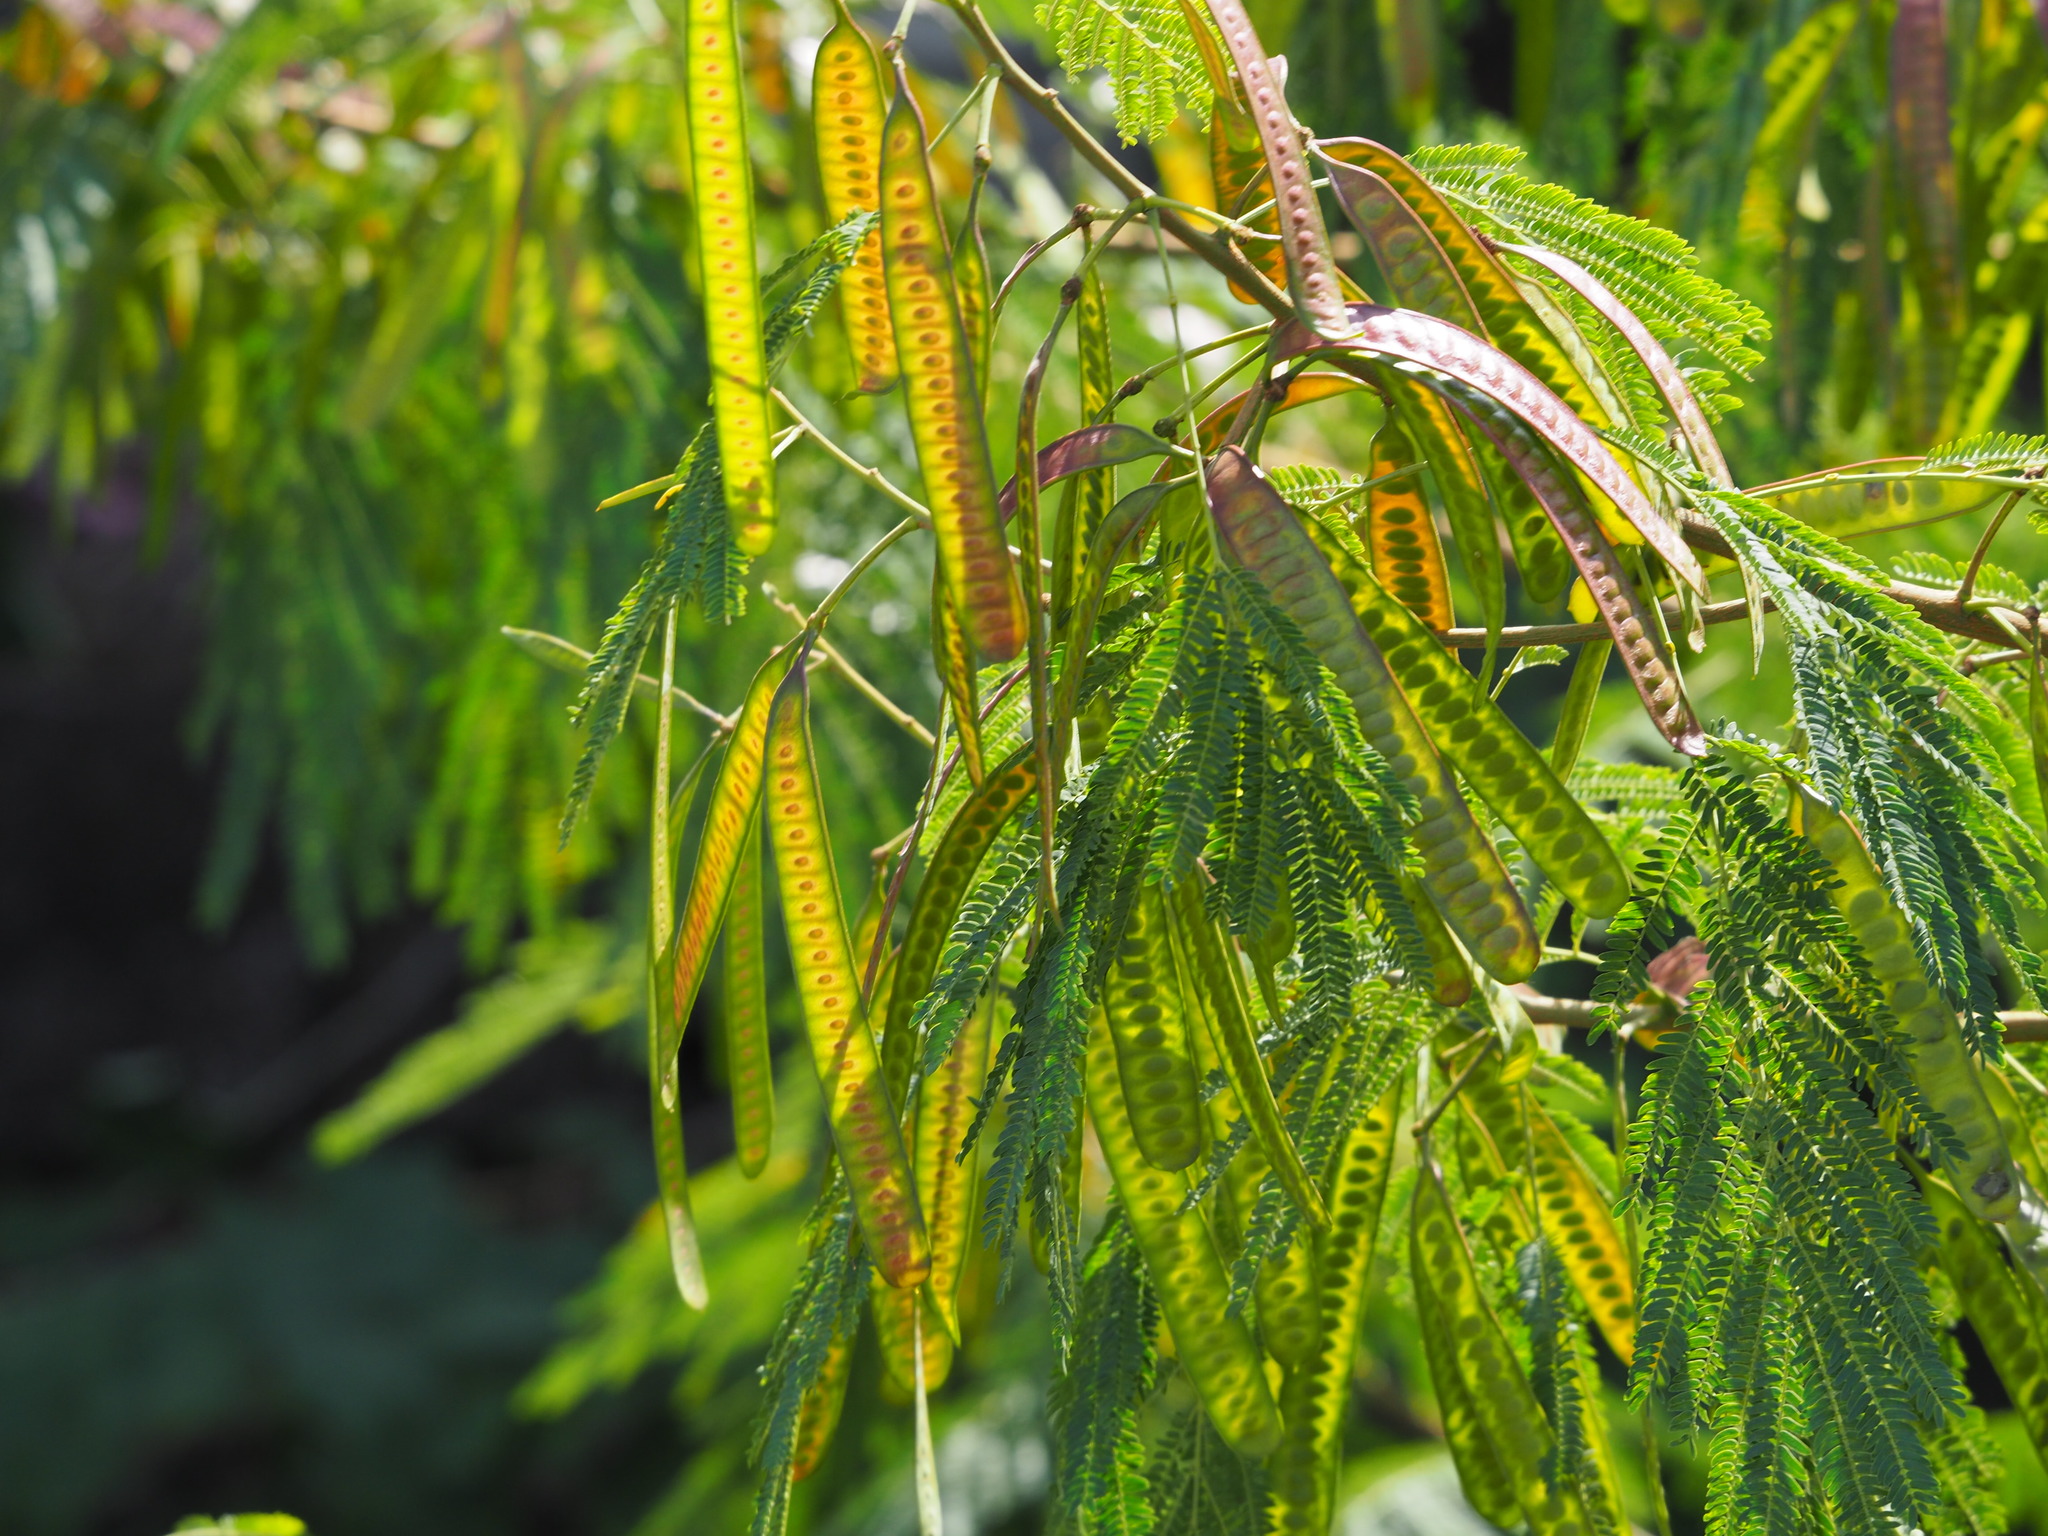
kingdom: Plantae
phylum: Tracheophyta
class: Magnoliopsida
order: Fabales
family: Fabaceae
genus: Leucaena
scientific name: Leucaena leucocephala
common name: White leadtree
